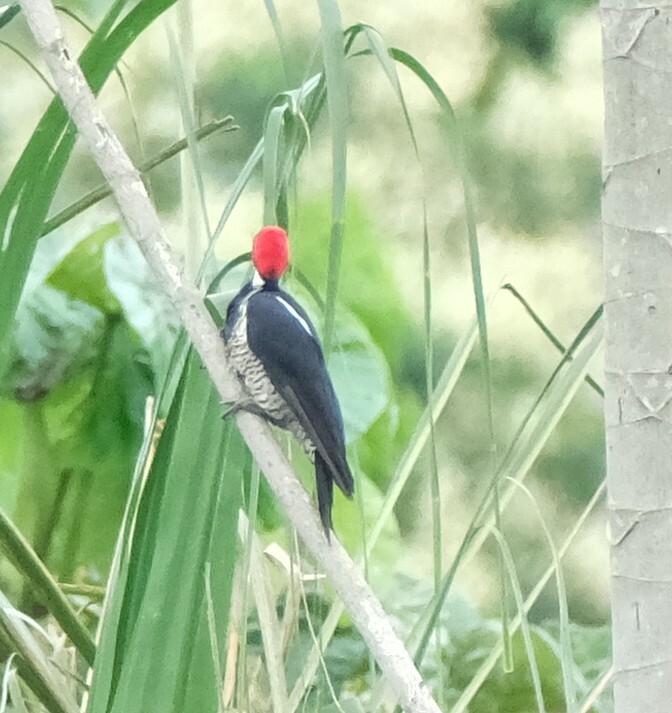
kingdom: Animalia
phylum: Chordata
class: Aves
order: Piciformes
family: Picidae
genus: Dryocopus
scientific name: Dryocopus lineatus
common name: Lineated woodpecker
